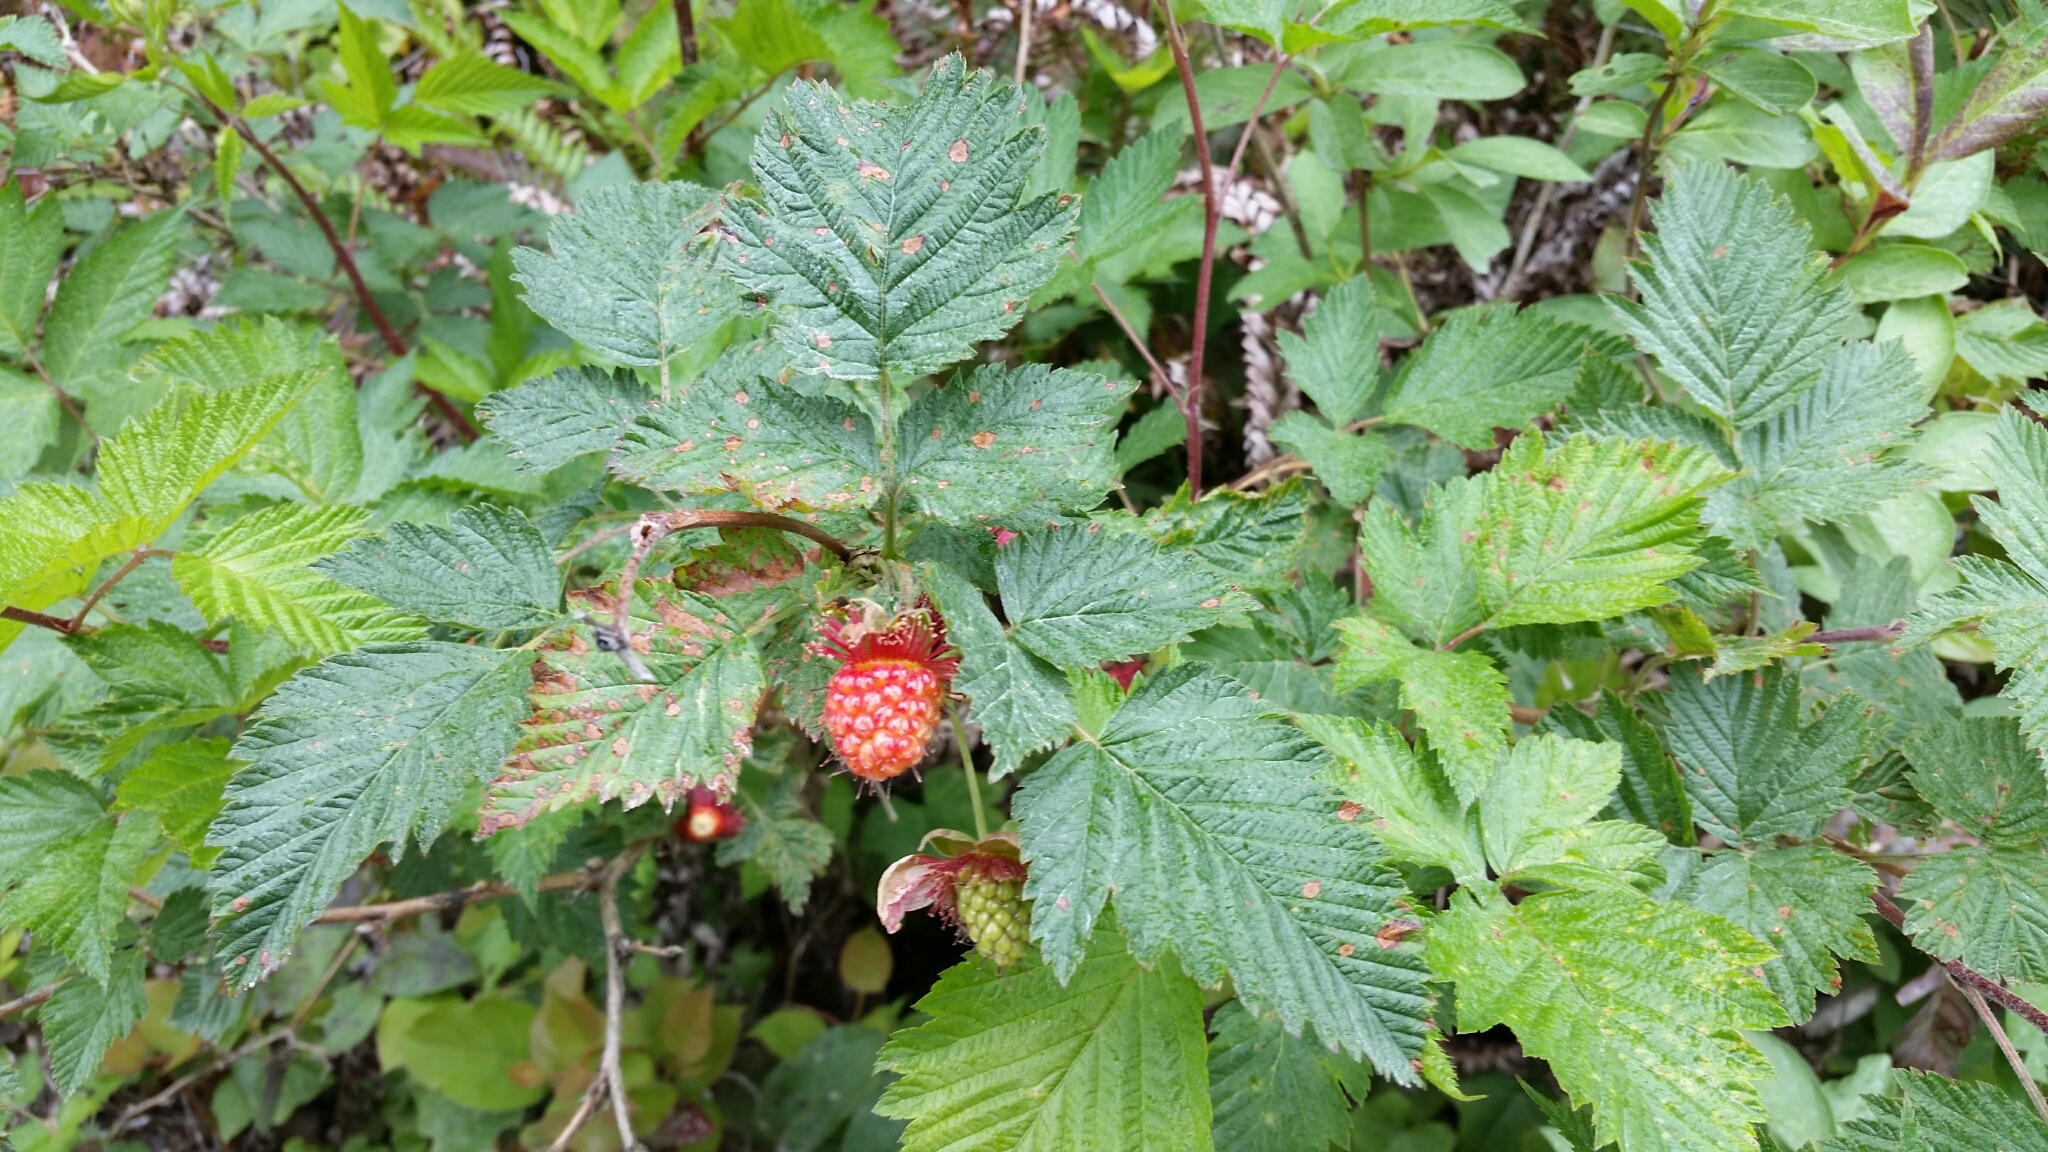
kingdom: Plantae
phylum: Tracheophyta
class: Magnoliopsida
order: Rosales
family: Rosaceae
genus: Rubus
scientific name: Rubus spectabilis
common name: Salmonberry
